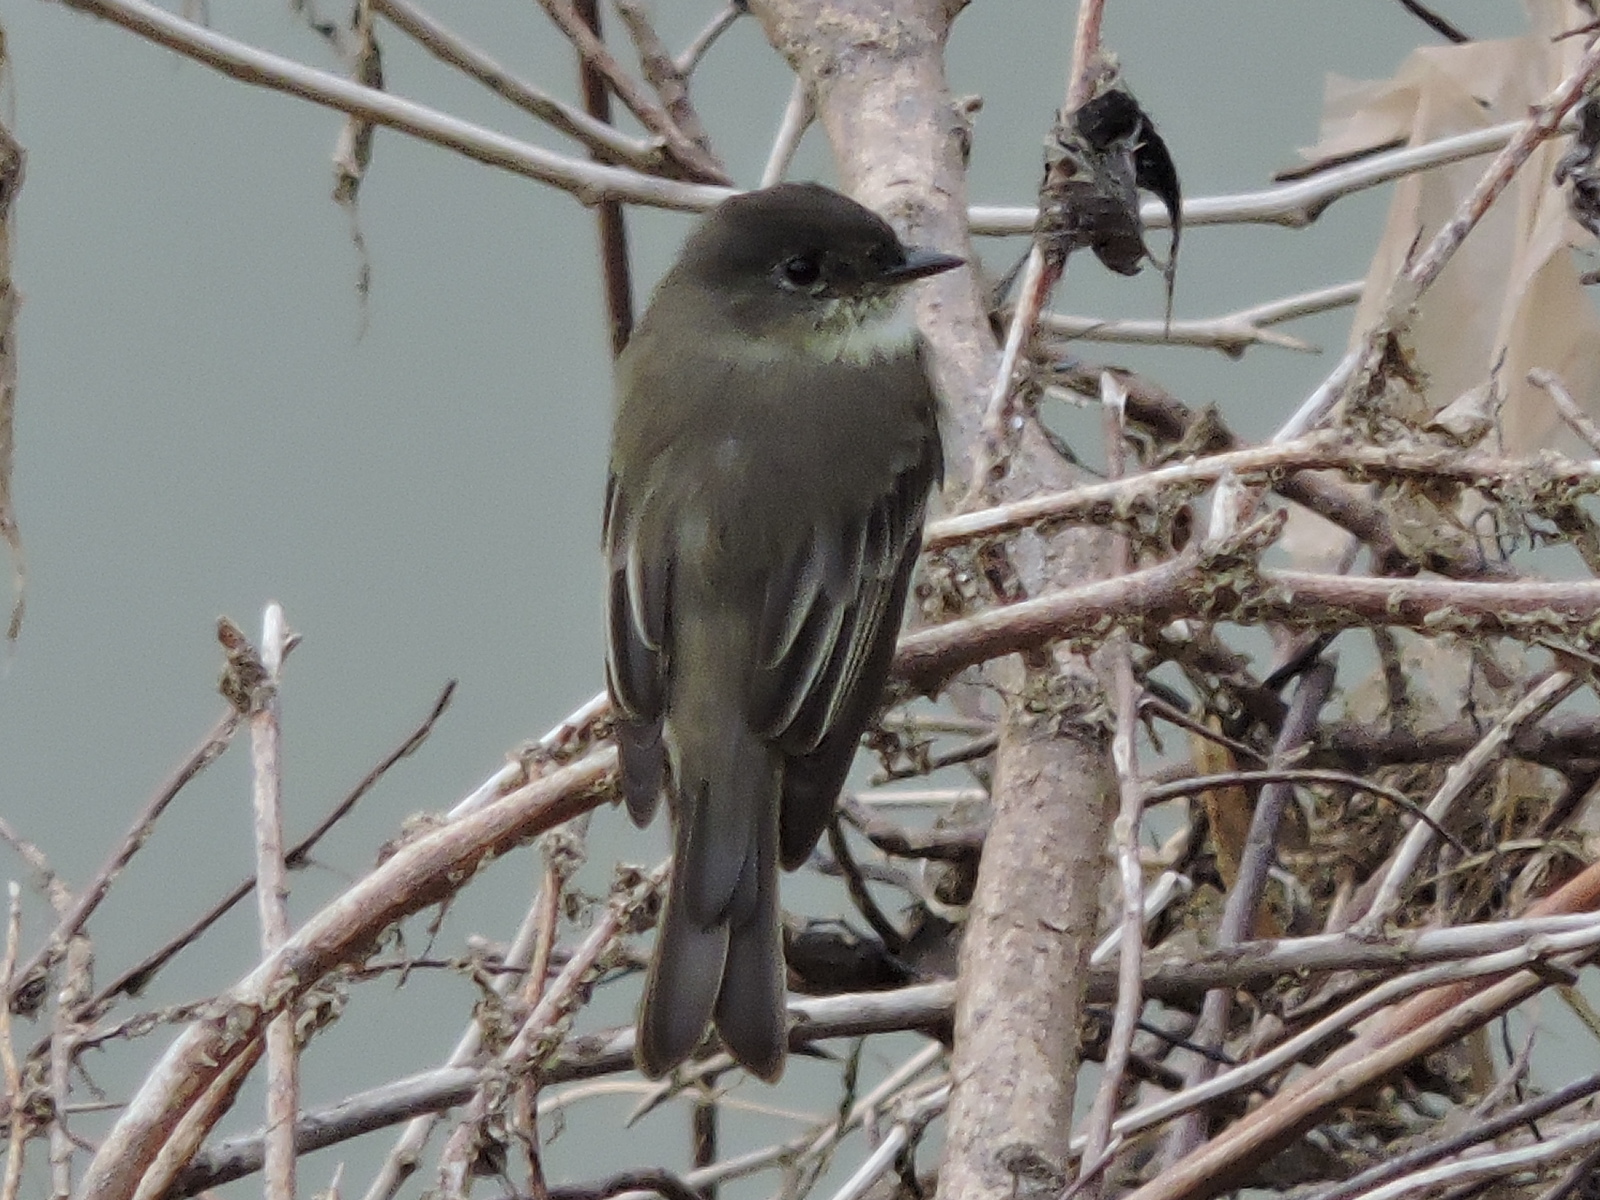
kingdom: Animalia
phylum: Chordata
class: Aves
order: Passeriformes
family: Tyrannidae
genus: Sayornis
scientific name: Sayornis phoebe
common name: Eastern phoebe
